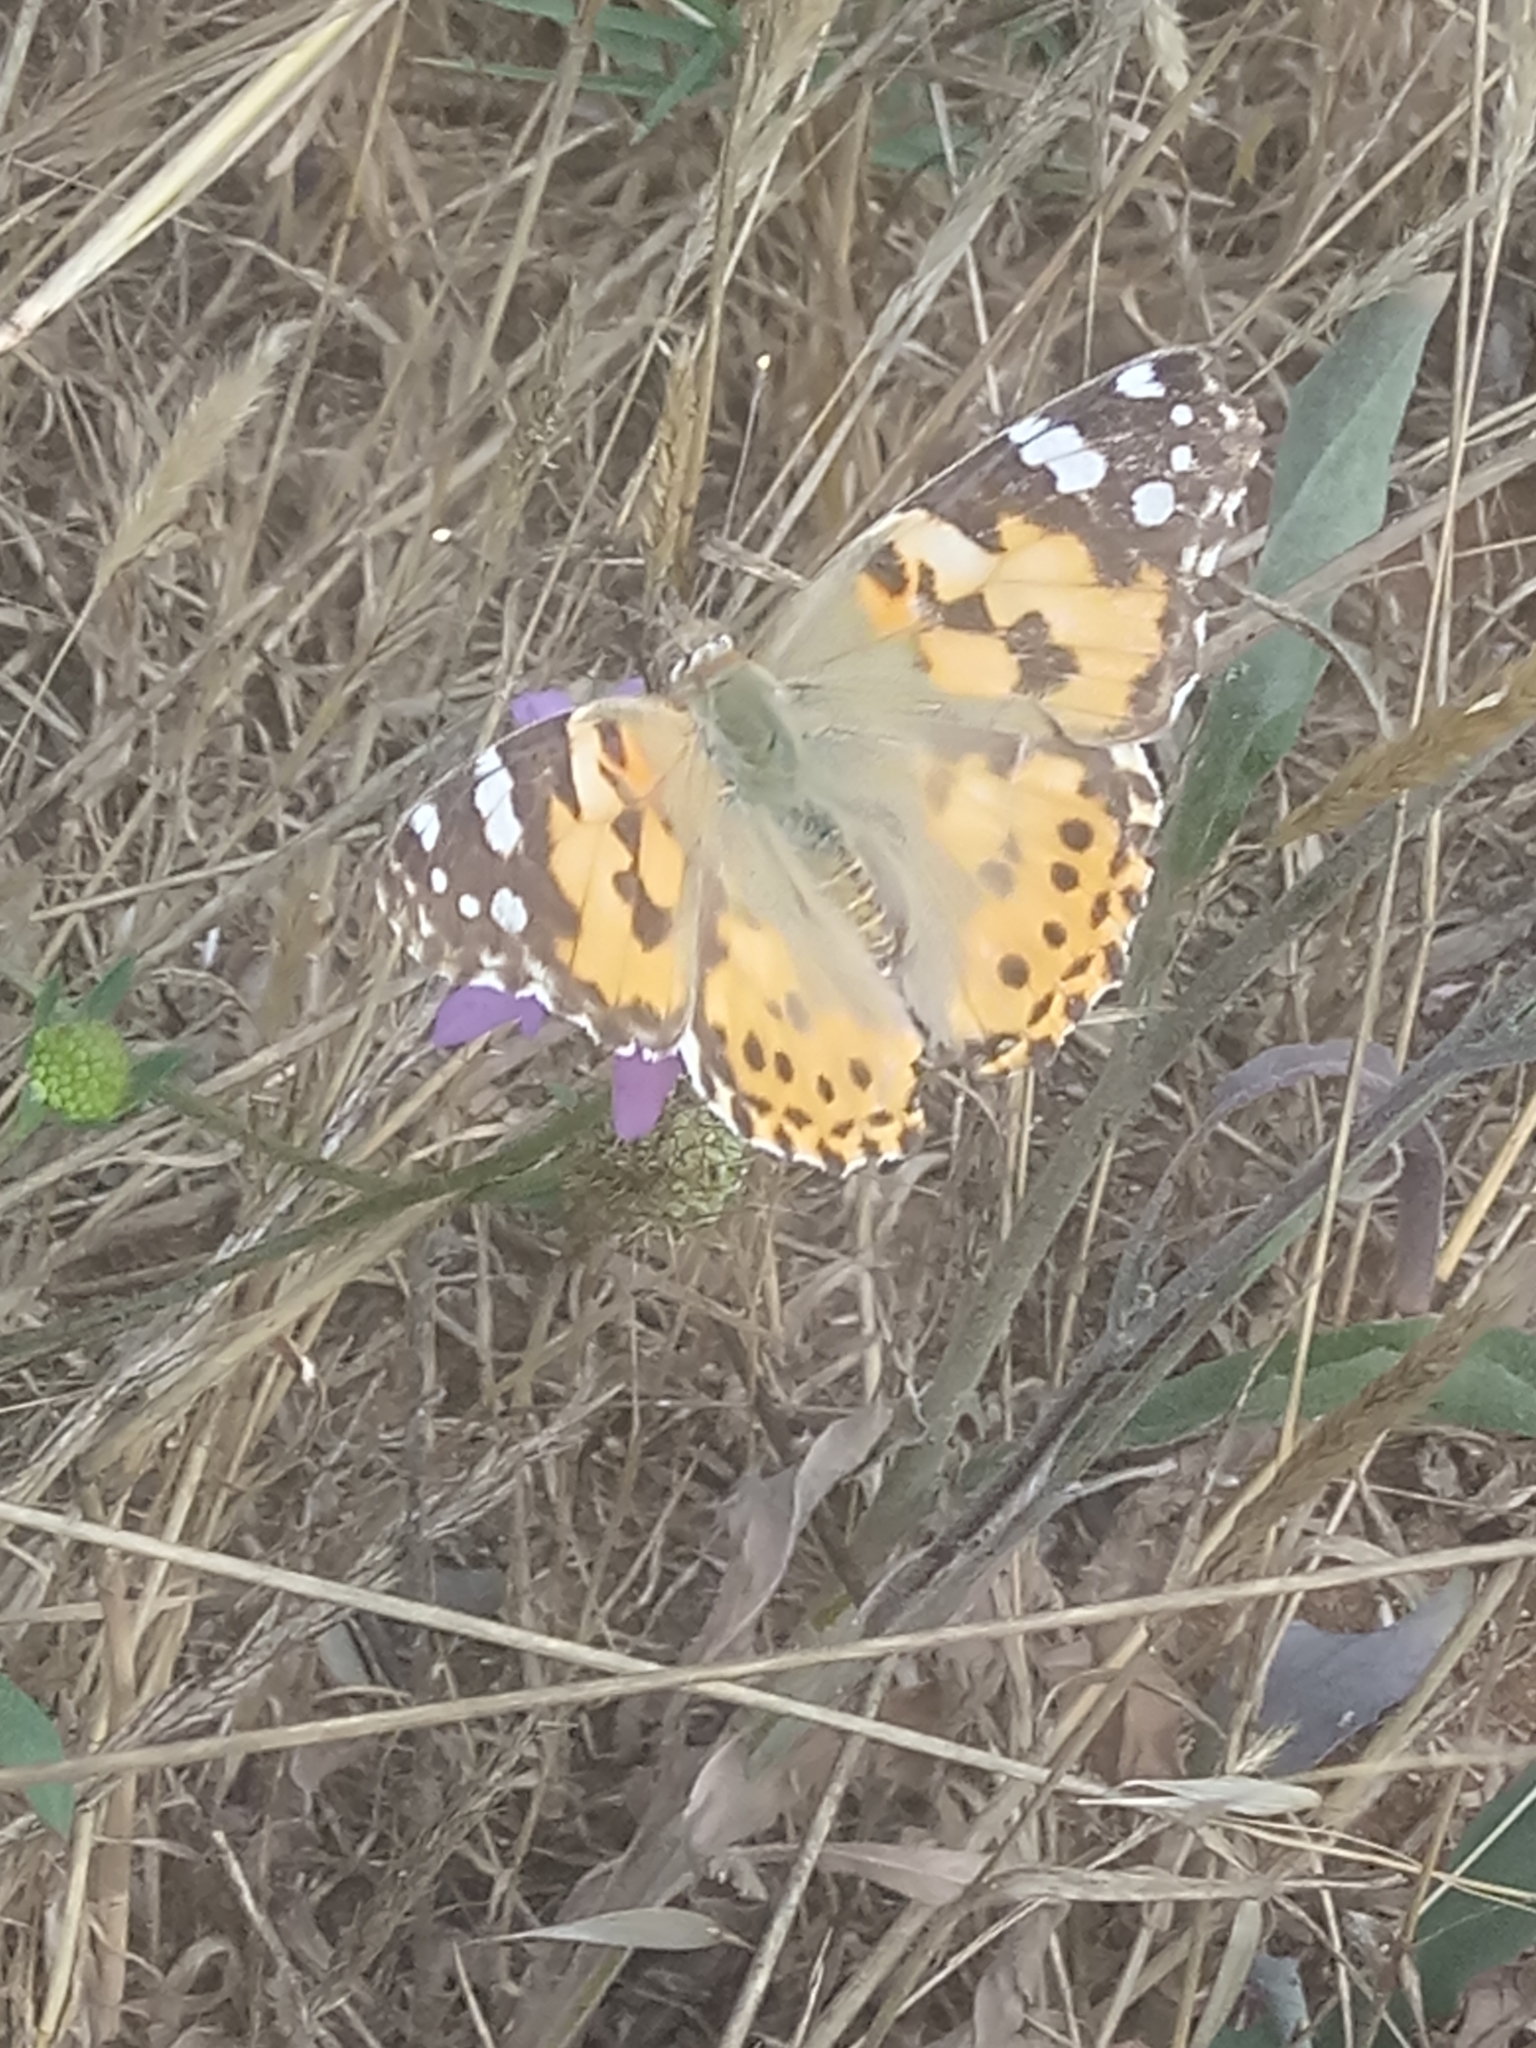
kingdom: Animalia
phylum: Arthropoda
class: Insecta
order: Lepidoptera
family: Nymphalidae
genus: Vanessa
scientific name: Vanessa cardui
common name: Painted lady
